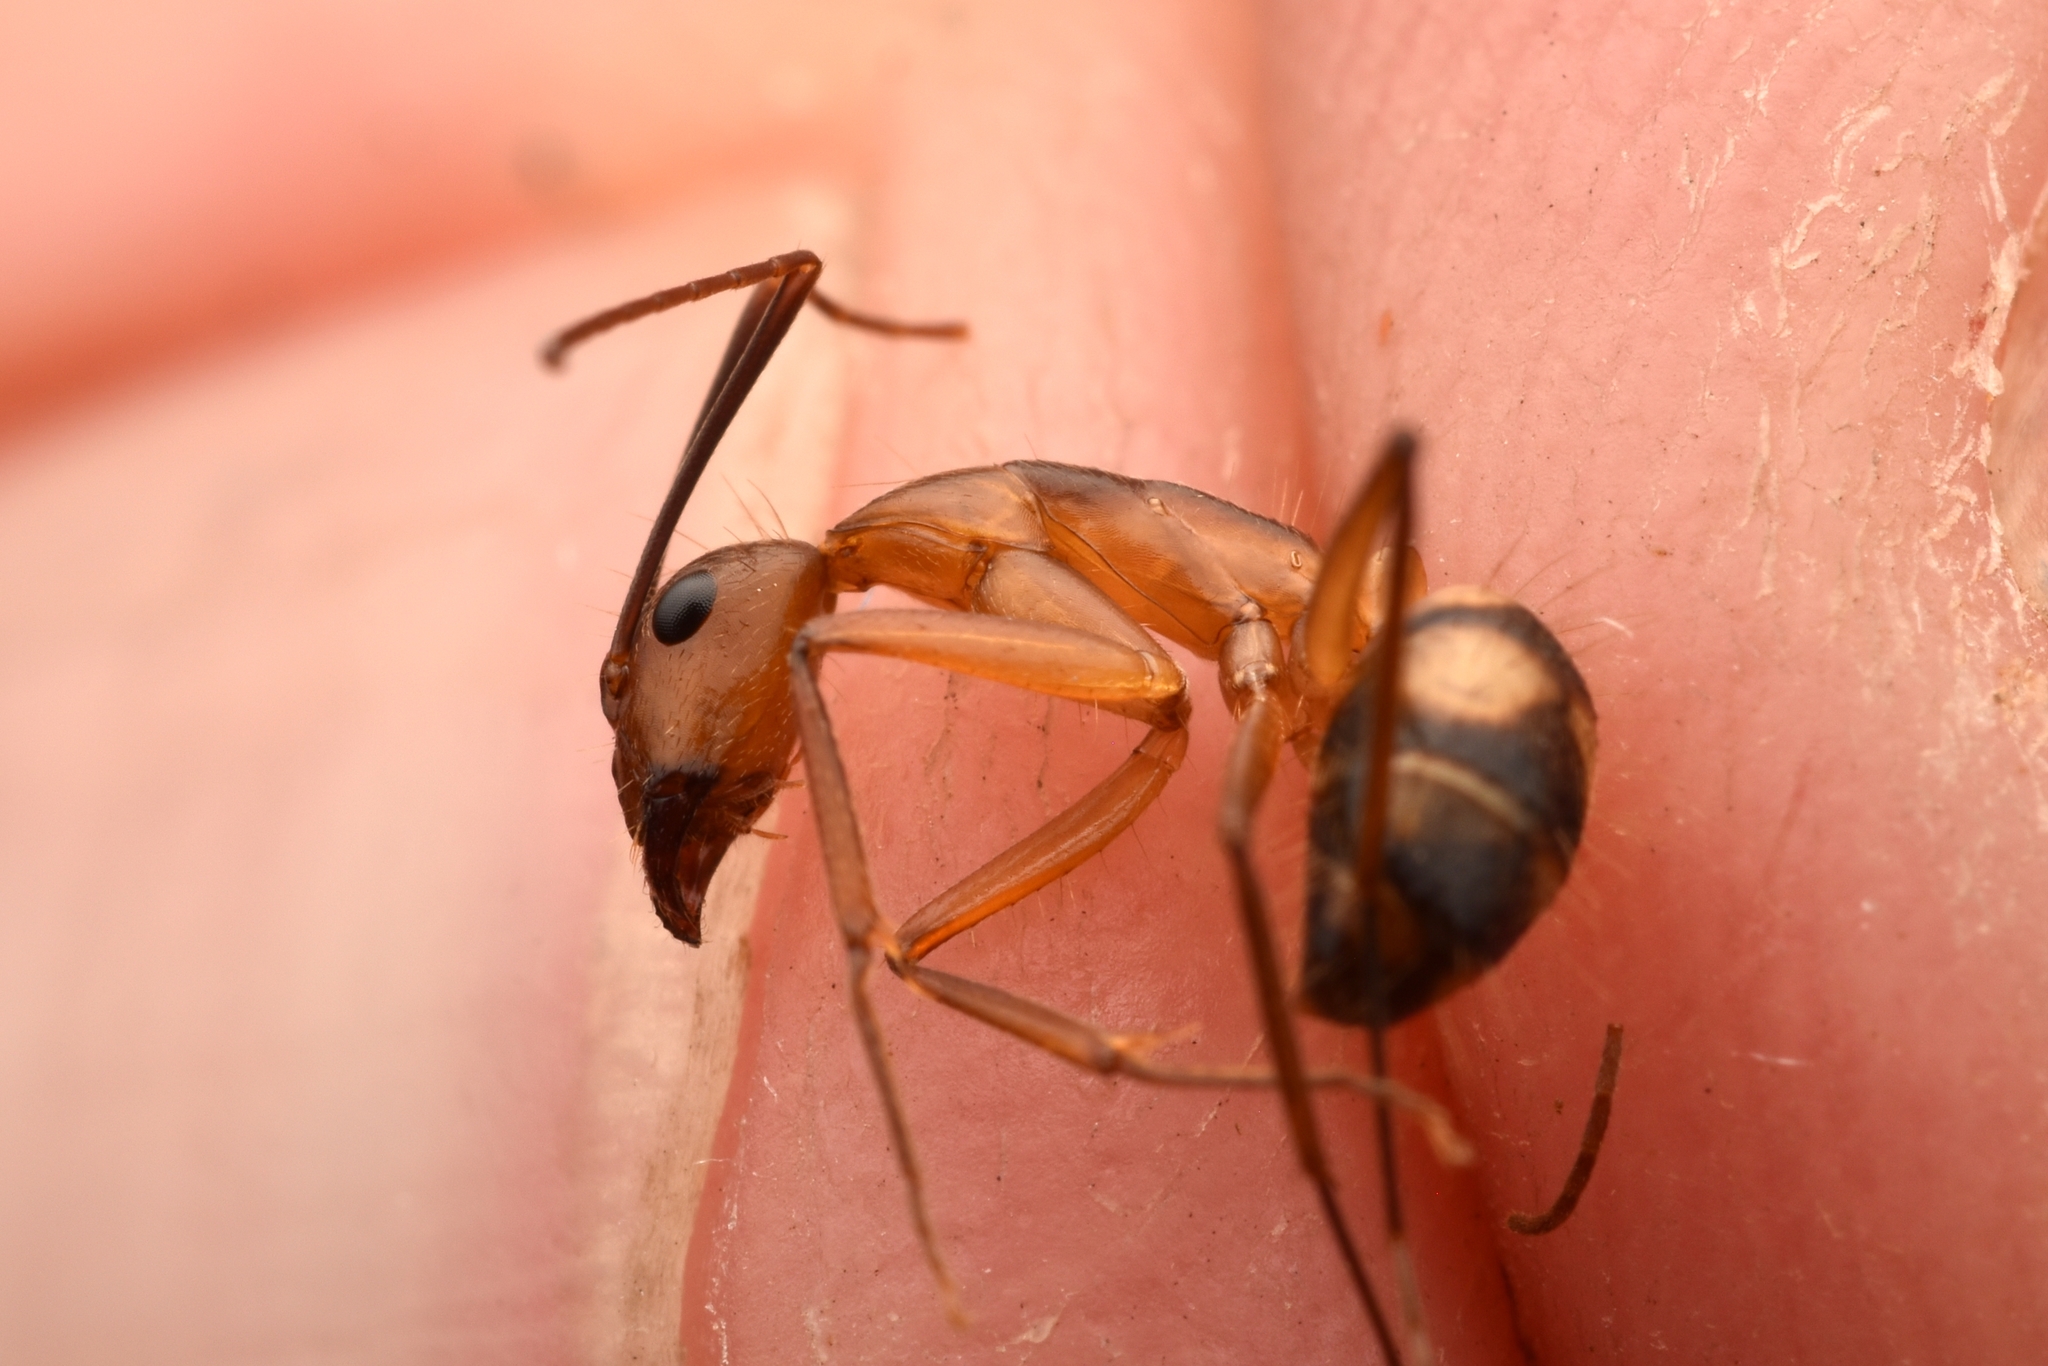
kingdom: Animalia
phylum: Arthropoda
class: Insecta
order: Hymenoptera
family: Formicidae
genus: Camponotus
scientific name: Camponotus
